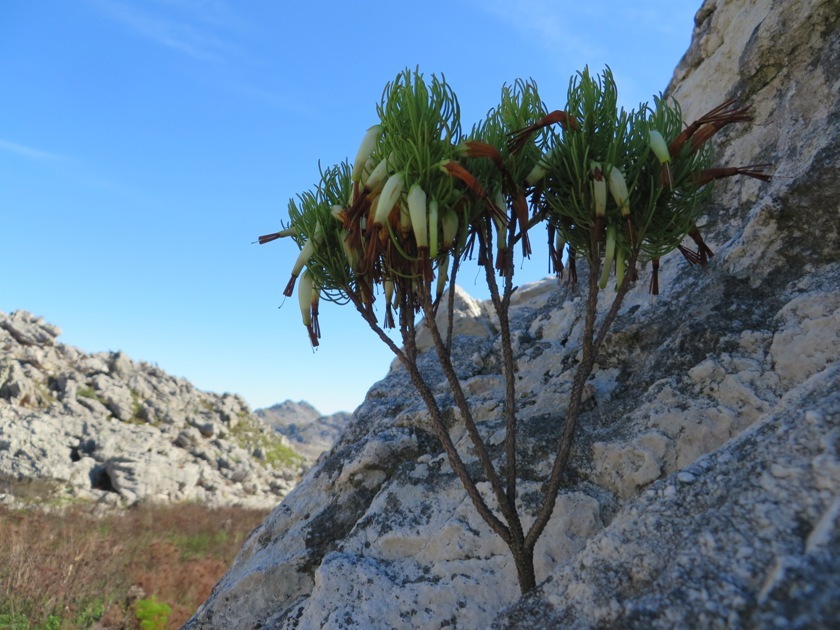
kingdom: Plantae
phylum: Tracheophyta
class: Magnoliopsida
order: Ericales
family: Ericaceae
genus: Erica
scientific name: Erica plukenetii
